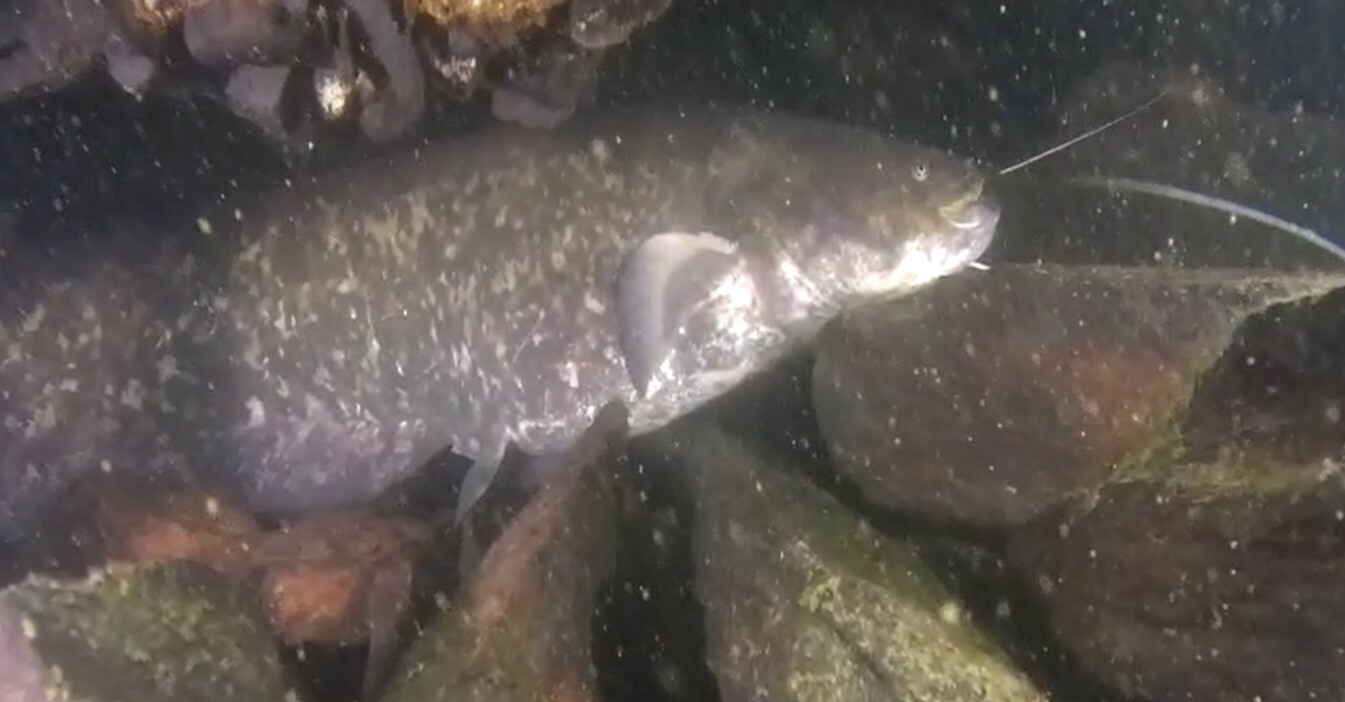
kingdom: Animalia
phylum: Chordata
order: Siluriformes
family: Siluridae
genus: Silurus
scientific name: Silurus glanis
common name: Wels
